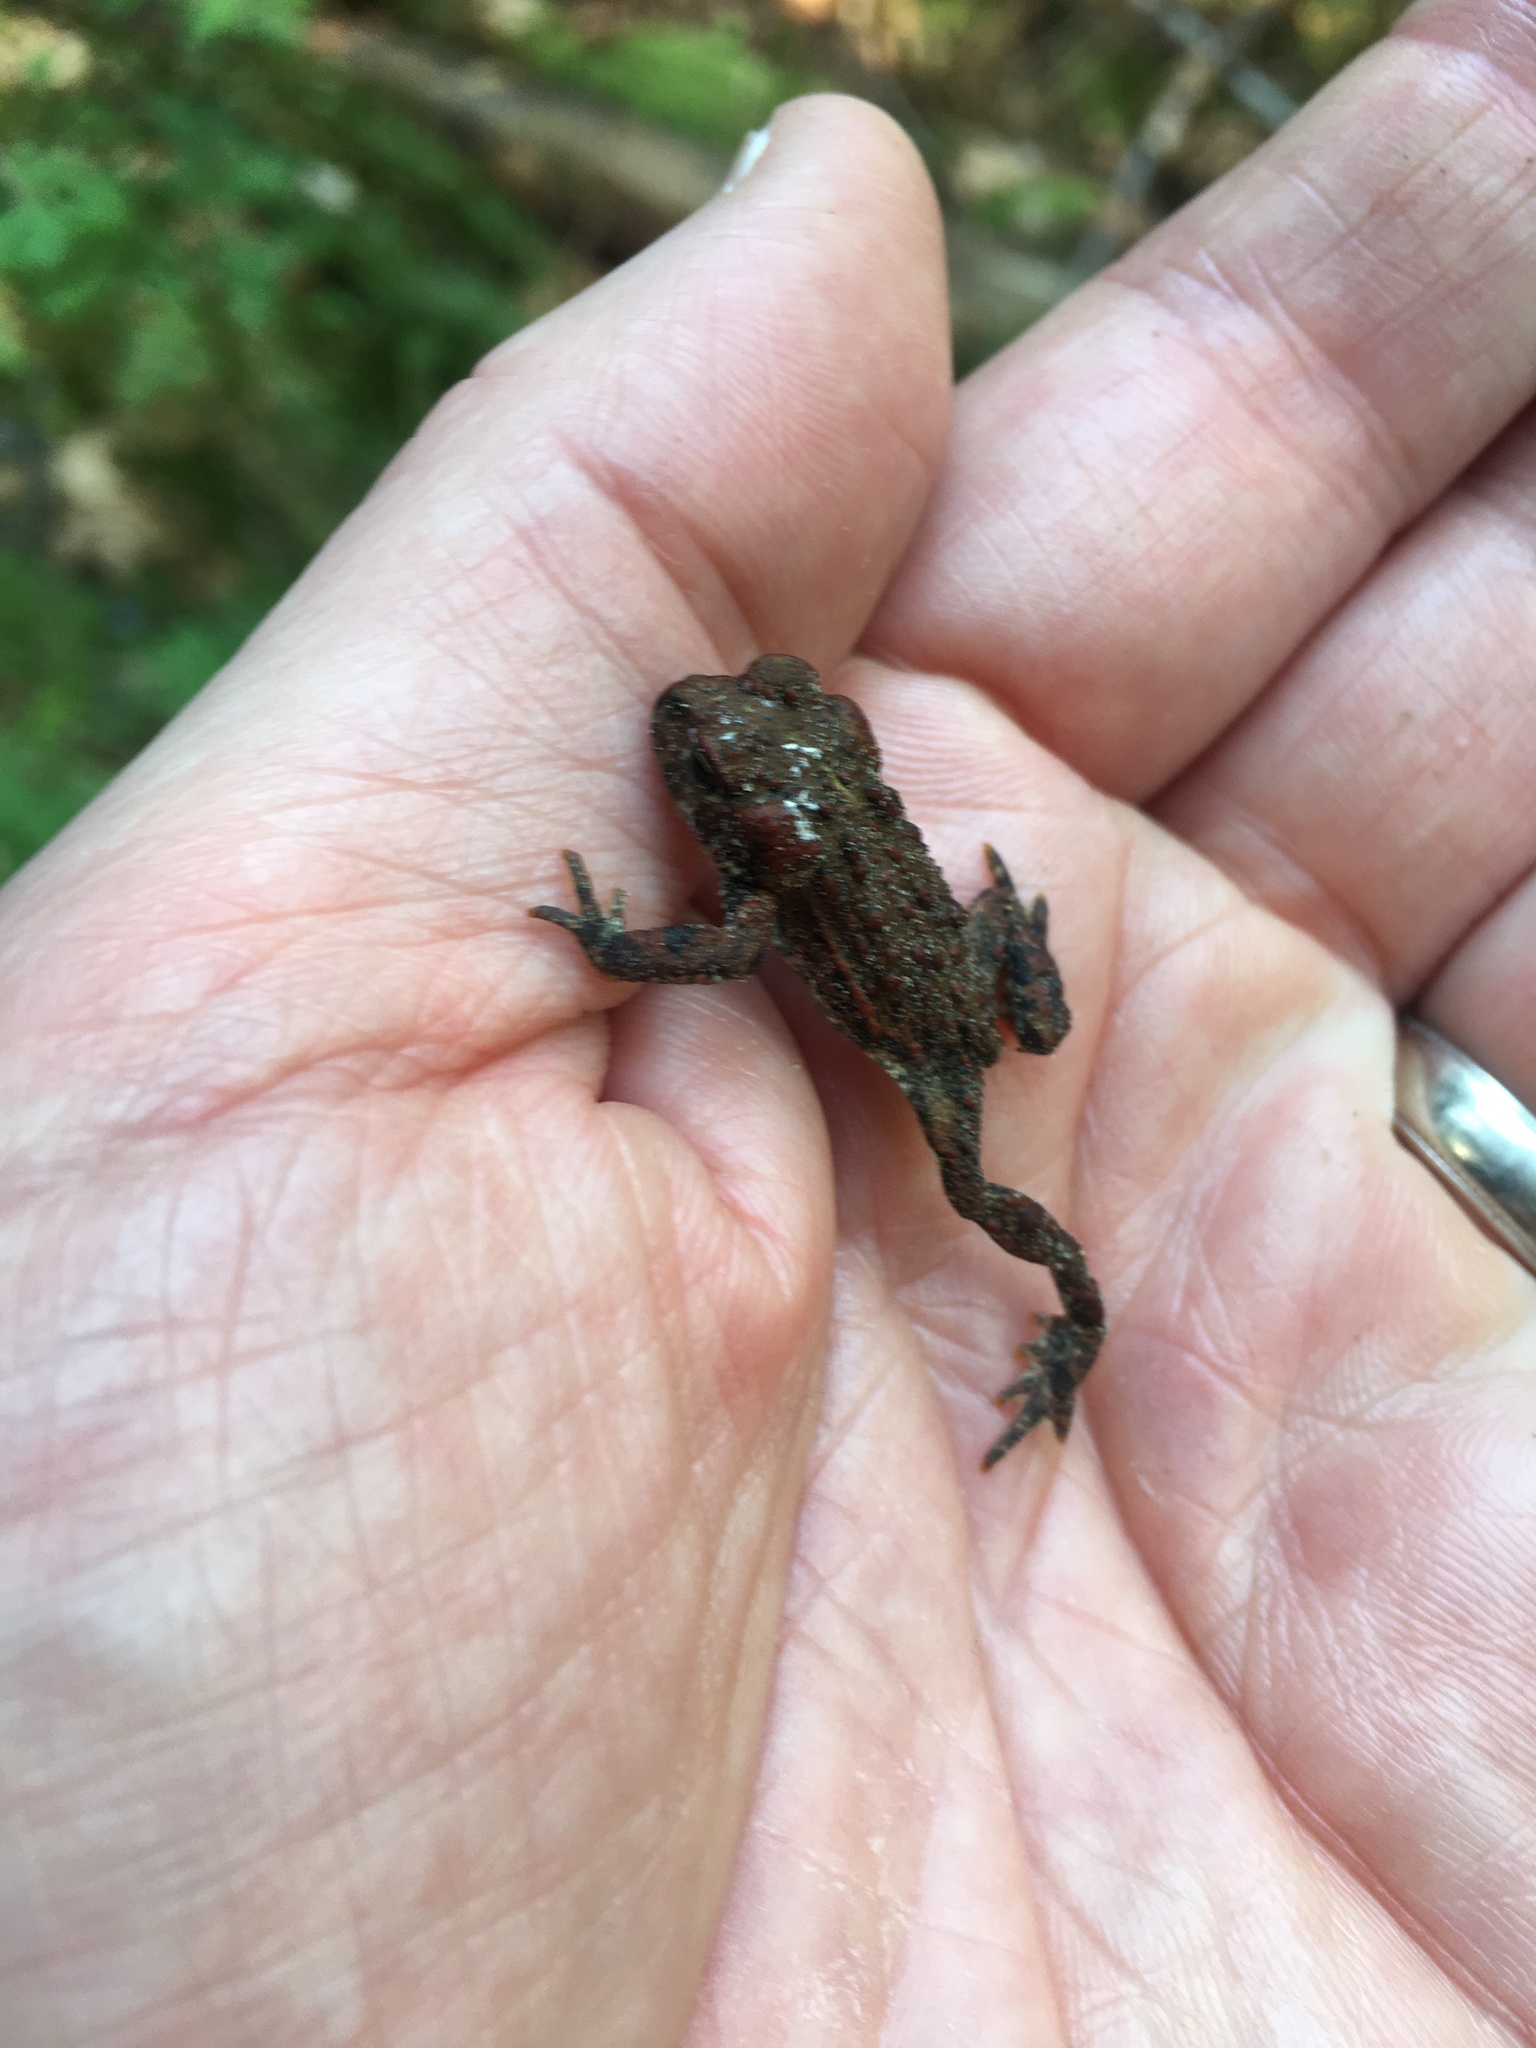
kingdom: Animalia
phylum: Chordata
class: Amphibia
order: Anura
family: Bufonidae
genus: Anaxyrus
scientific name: Anaxyrus boreas
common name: Western toad
